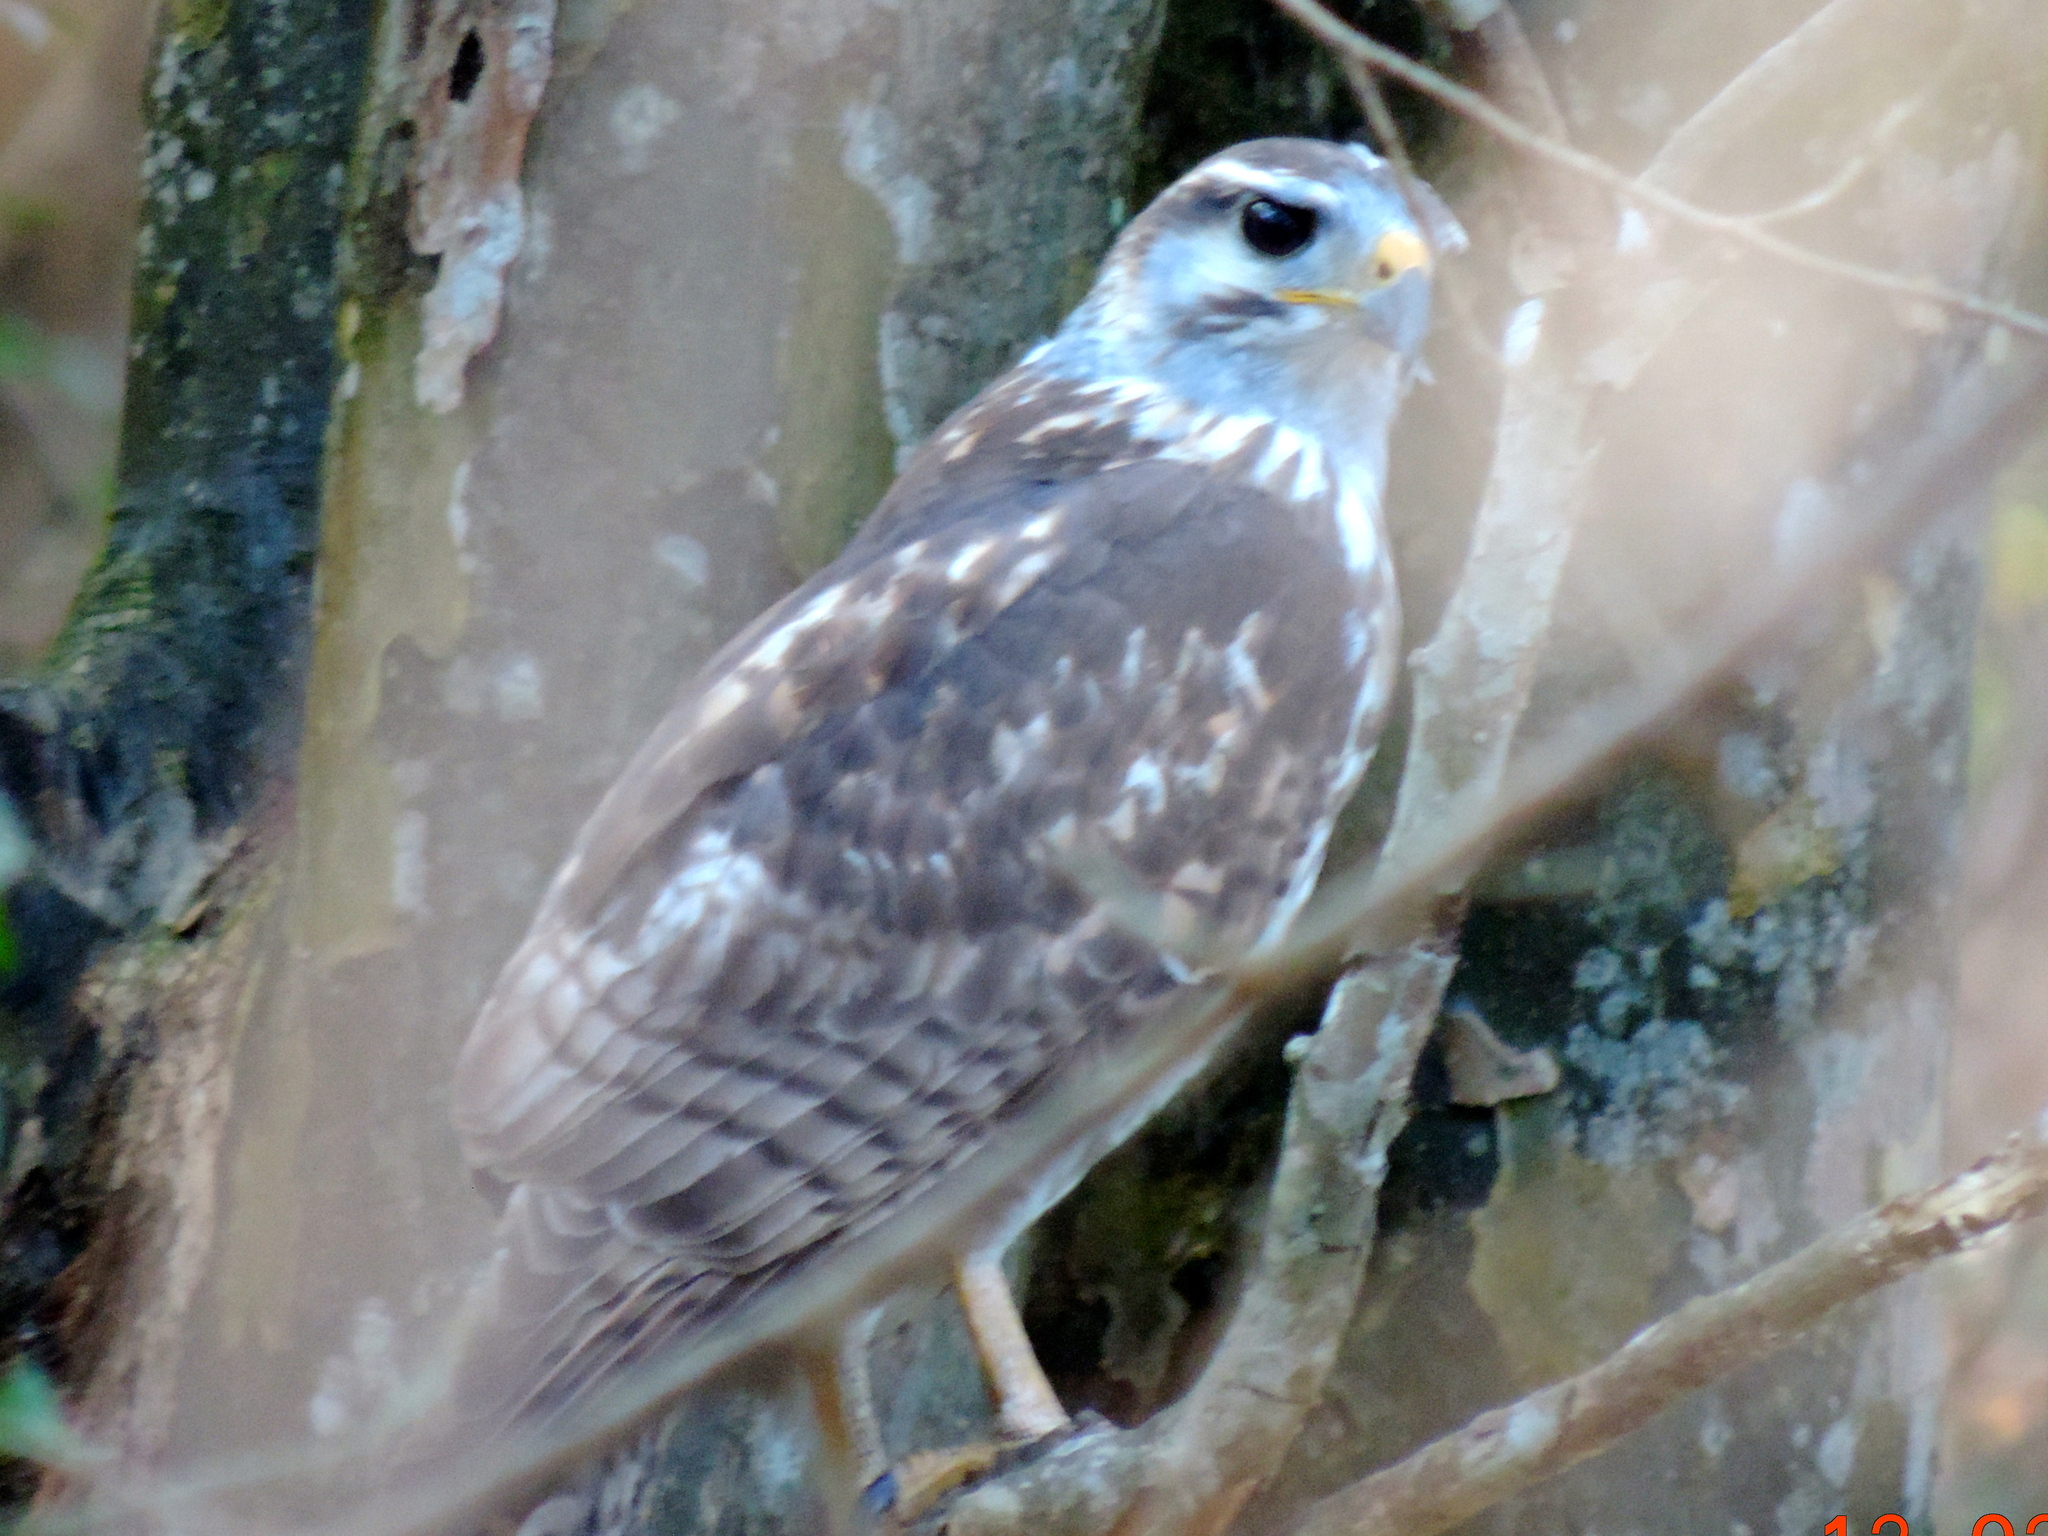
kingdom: Animalia
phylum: Chordata
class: Aves
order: Accipitriformes
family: Accipitridae
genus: Buteo
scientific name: Buteo nitidus
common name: Grey-lined hawk
